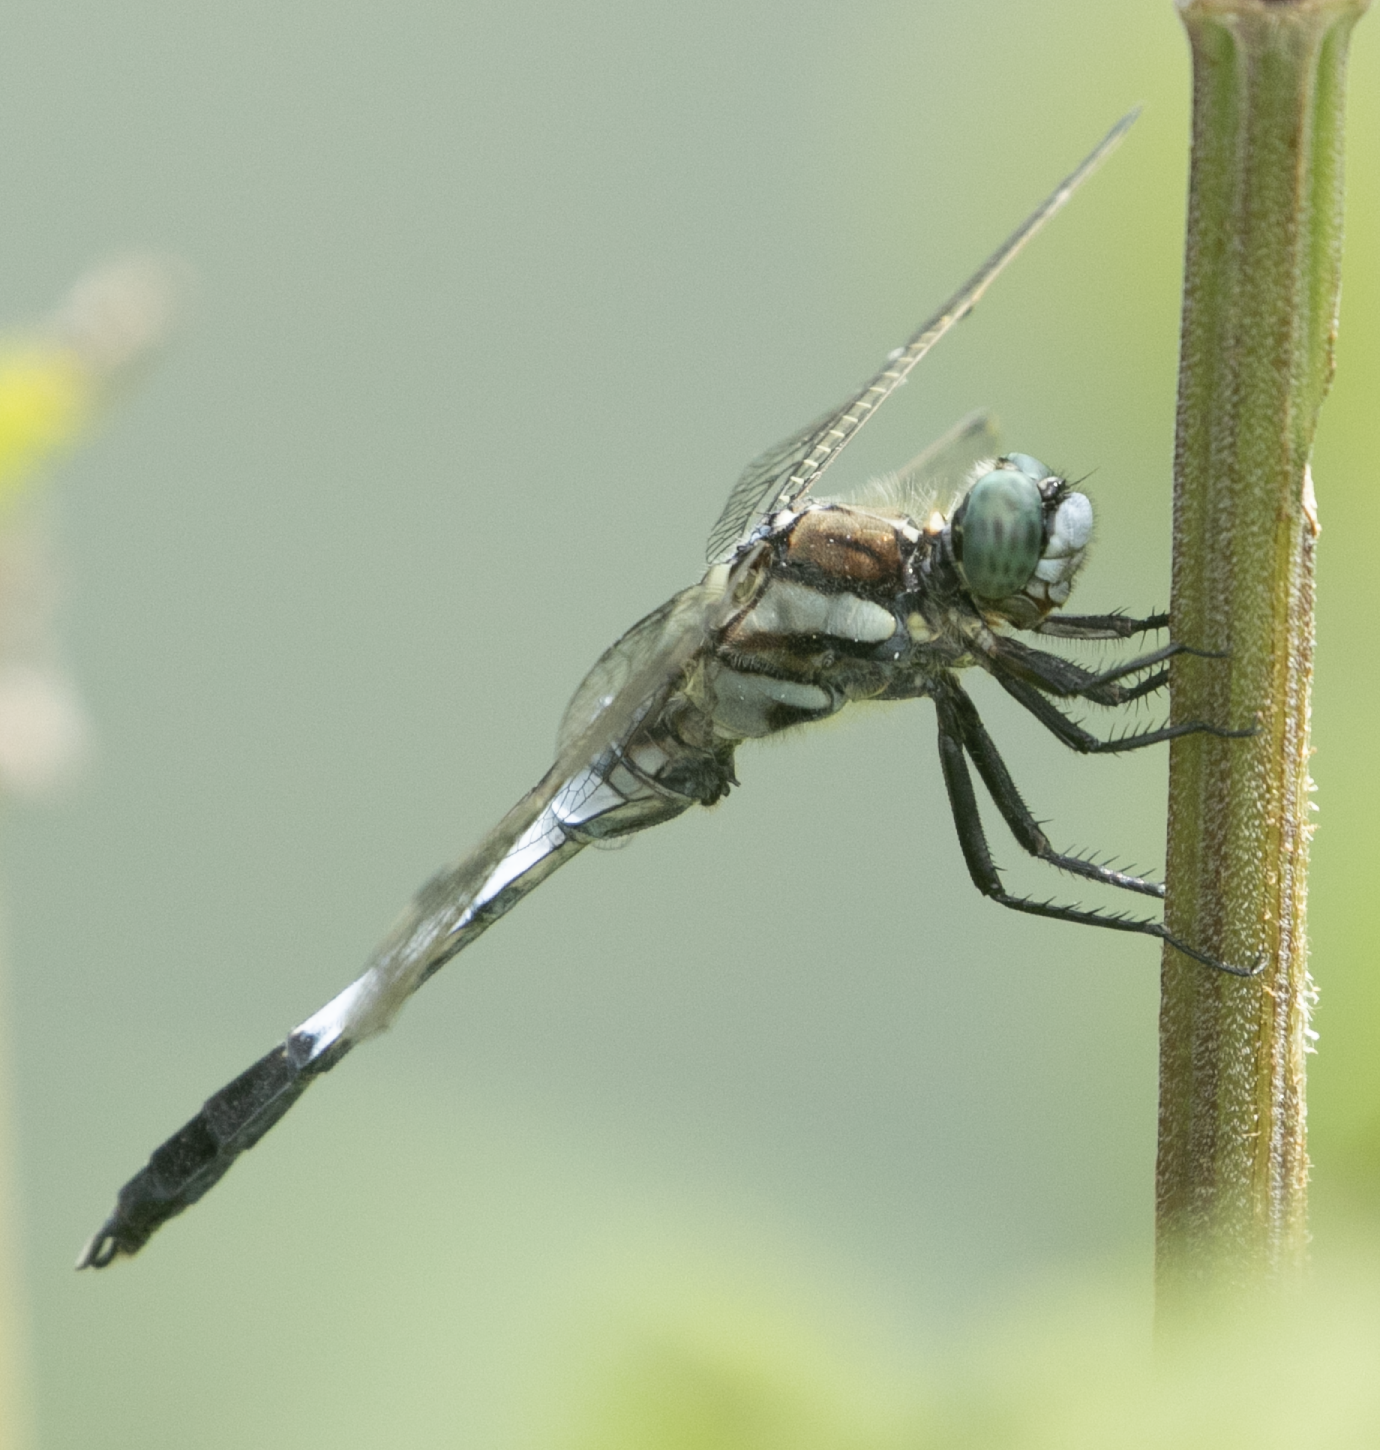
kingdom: Animalia
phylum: Arthropoda
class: Insecta
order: Odonata
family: Libellulidae
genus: Orthetrum
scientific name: Orthetrum albistylum
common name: White-tailed skimmer
